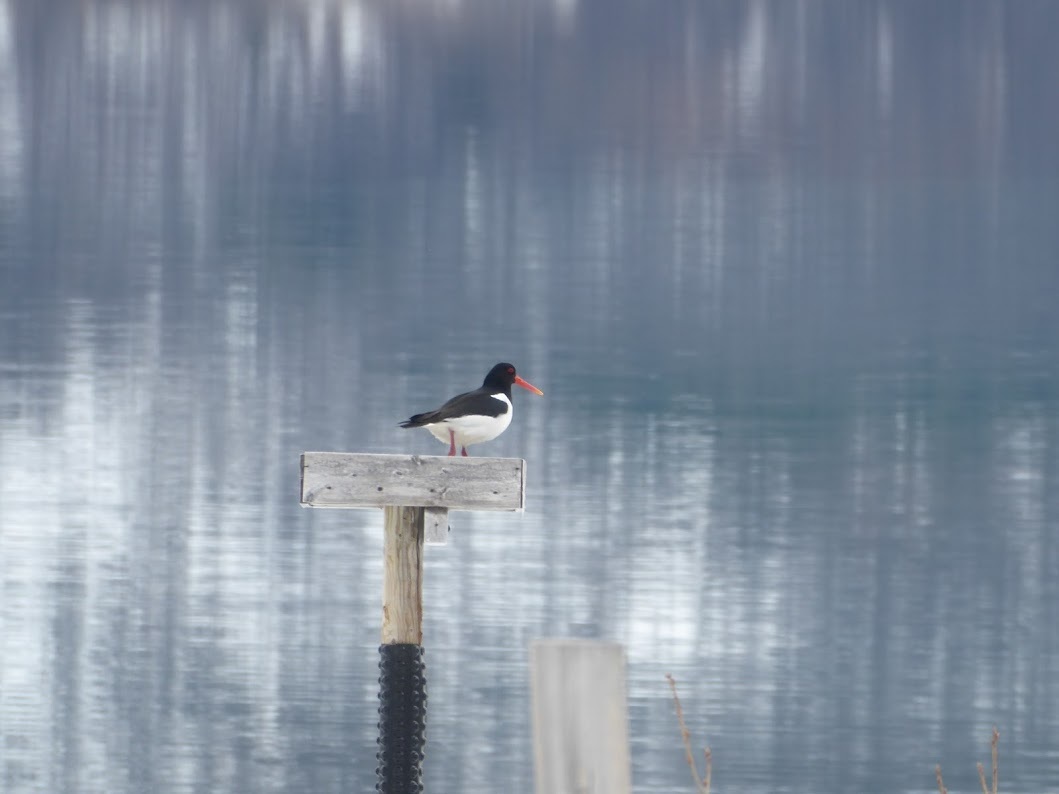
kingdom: Animalia
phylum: Chordata
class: Aves
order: Charadriiformes
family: Haematopodidae
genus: Haematopus
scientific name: Haematopus ostralegus
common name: Eurasian oystercatcher
